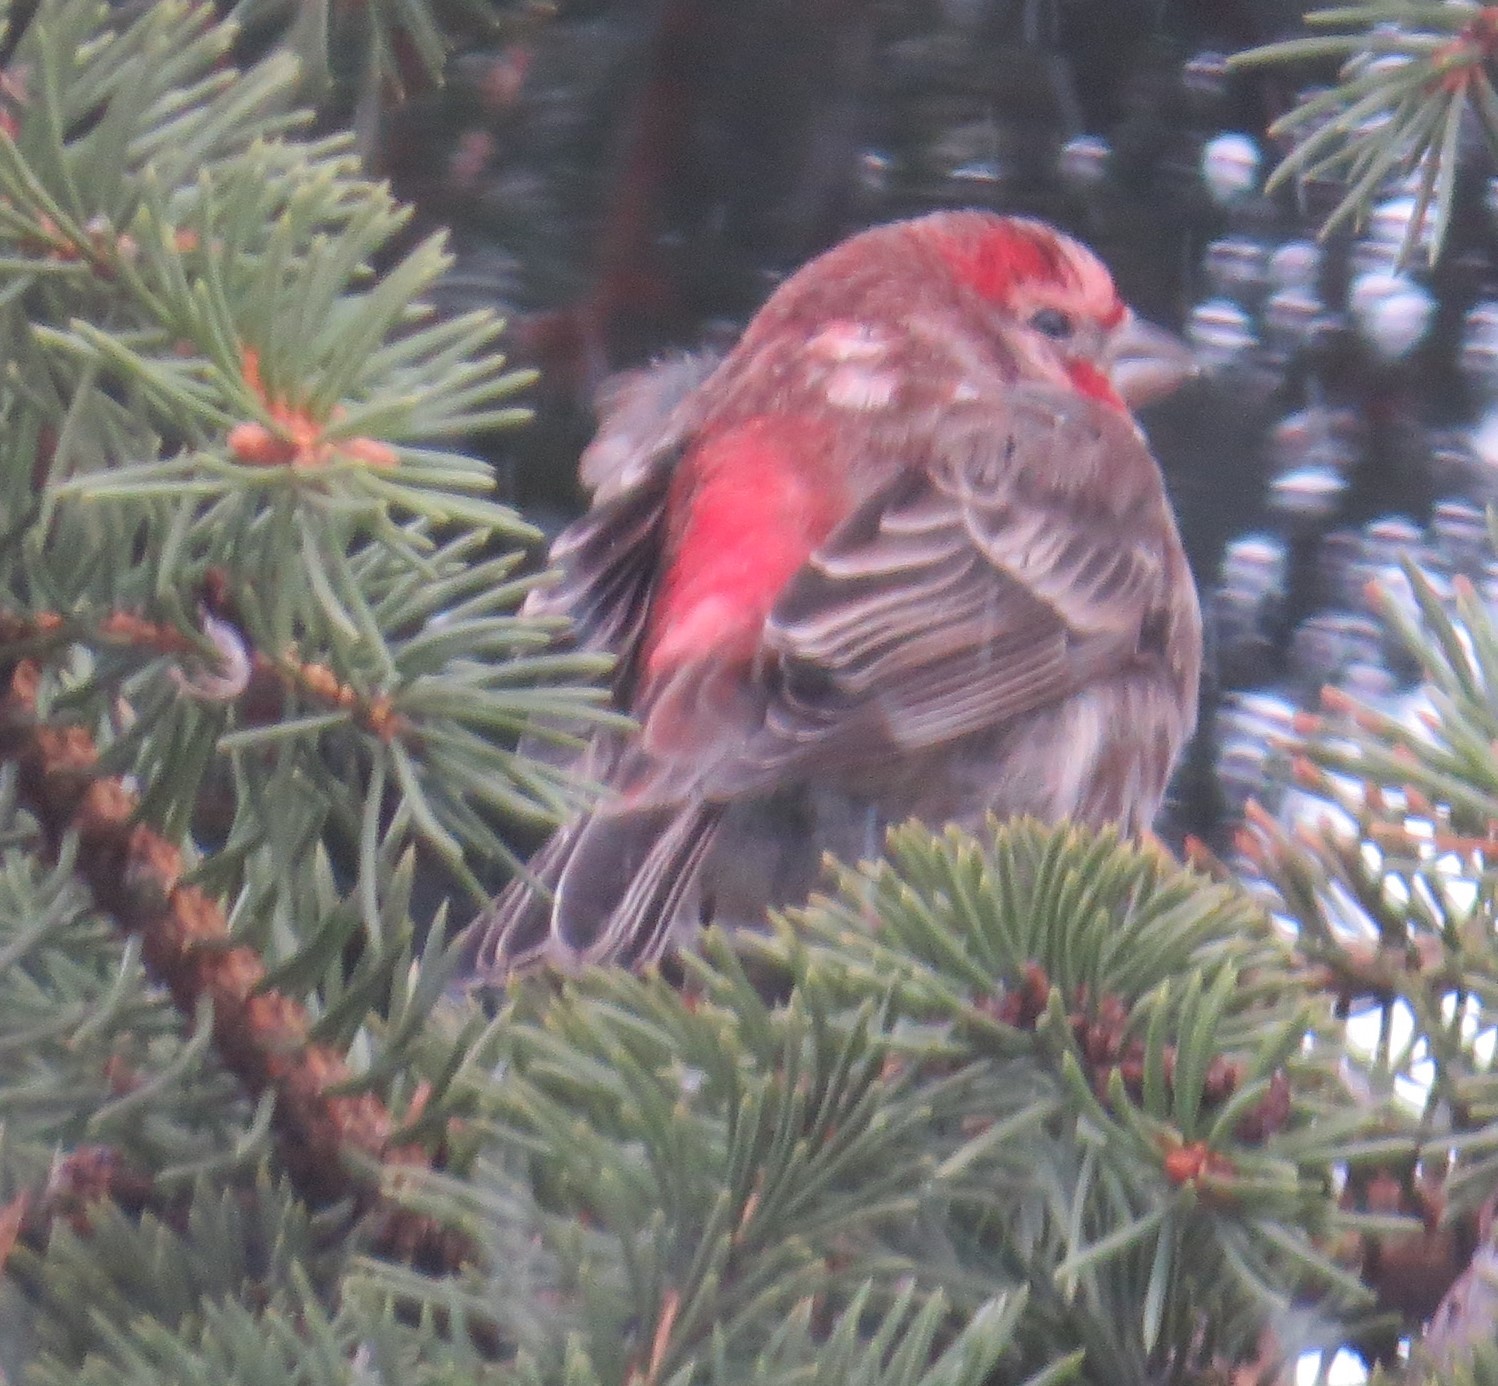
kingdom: Animalia
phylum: Chordata
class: Aves
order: Passeriformes
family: Fringillidae
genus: Haemorhous
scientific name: Haemorhous mexicanus
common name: House finch
